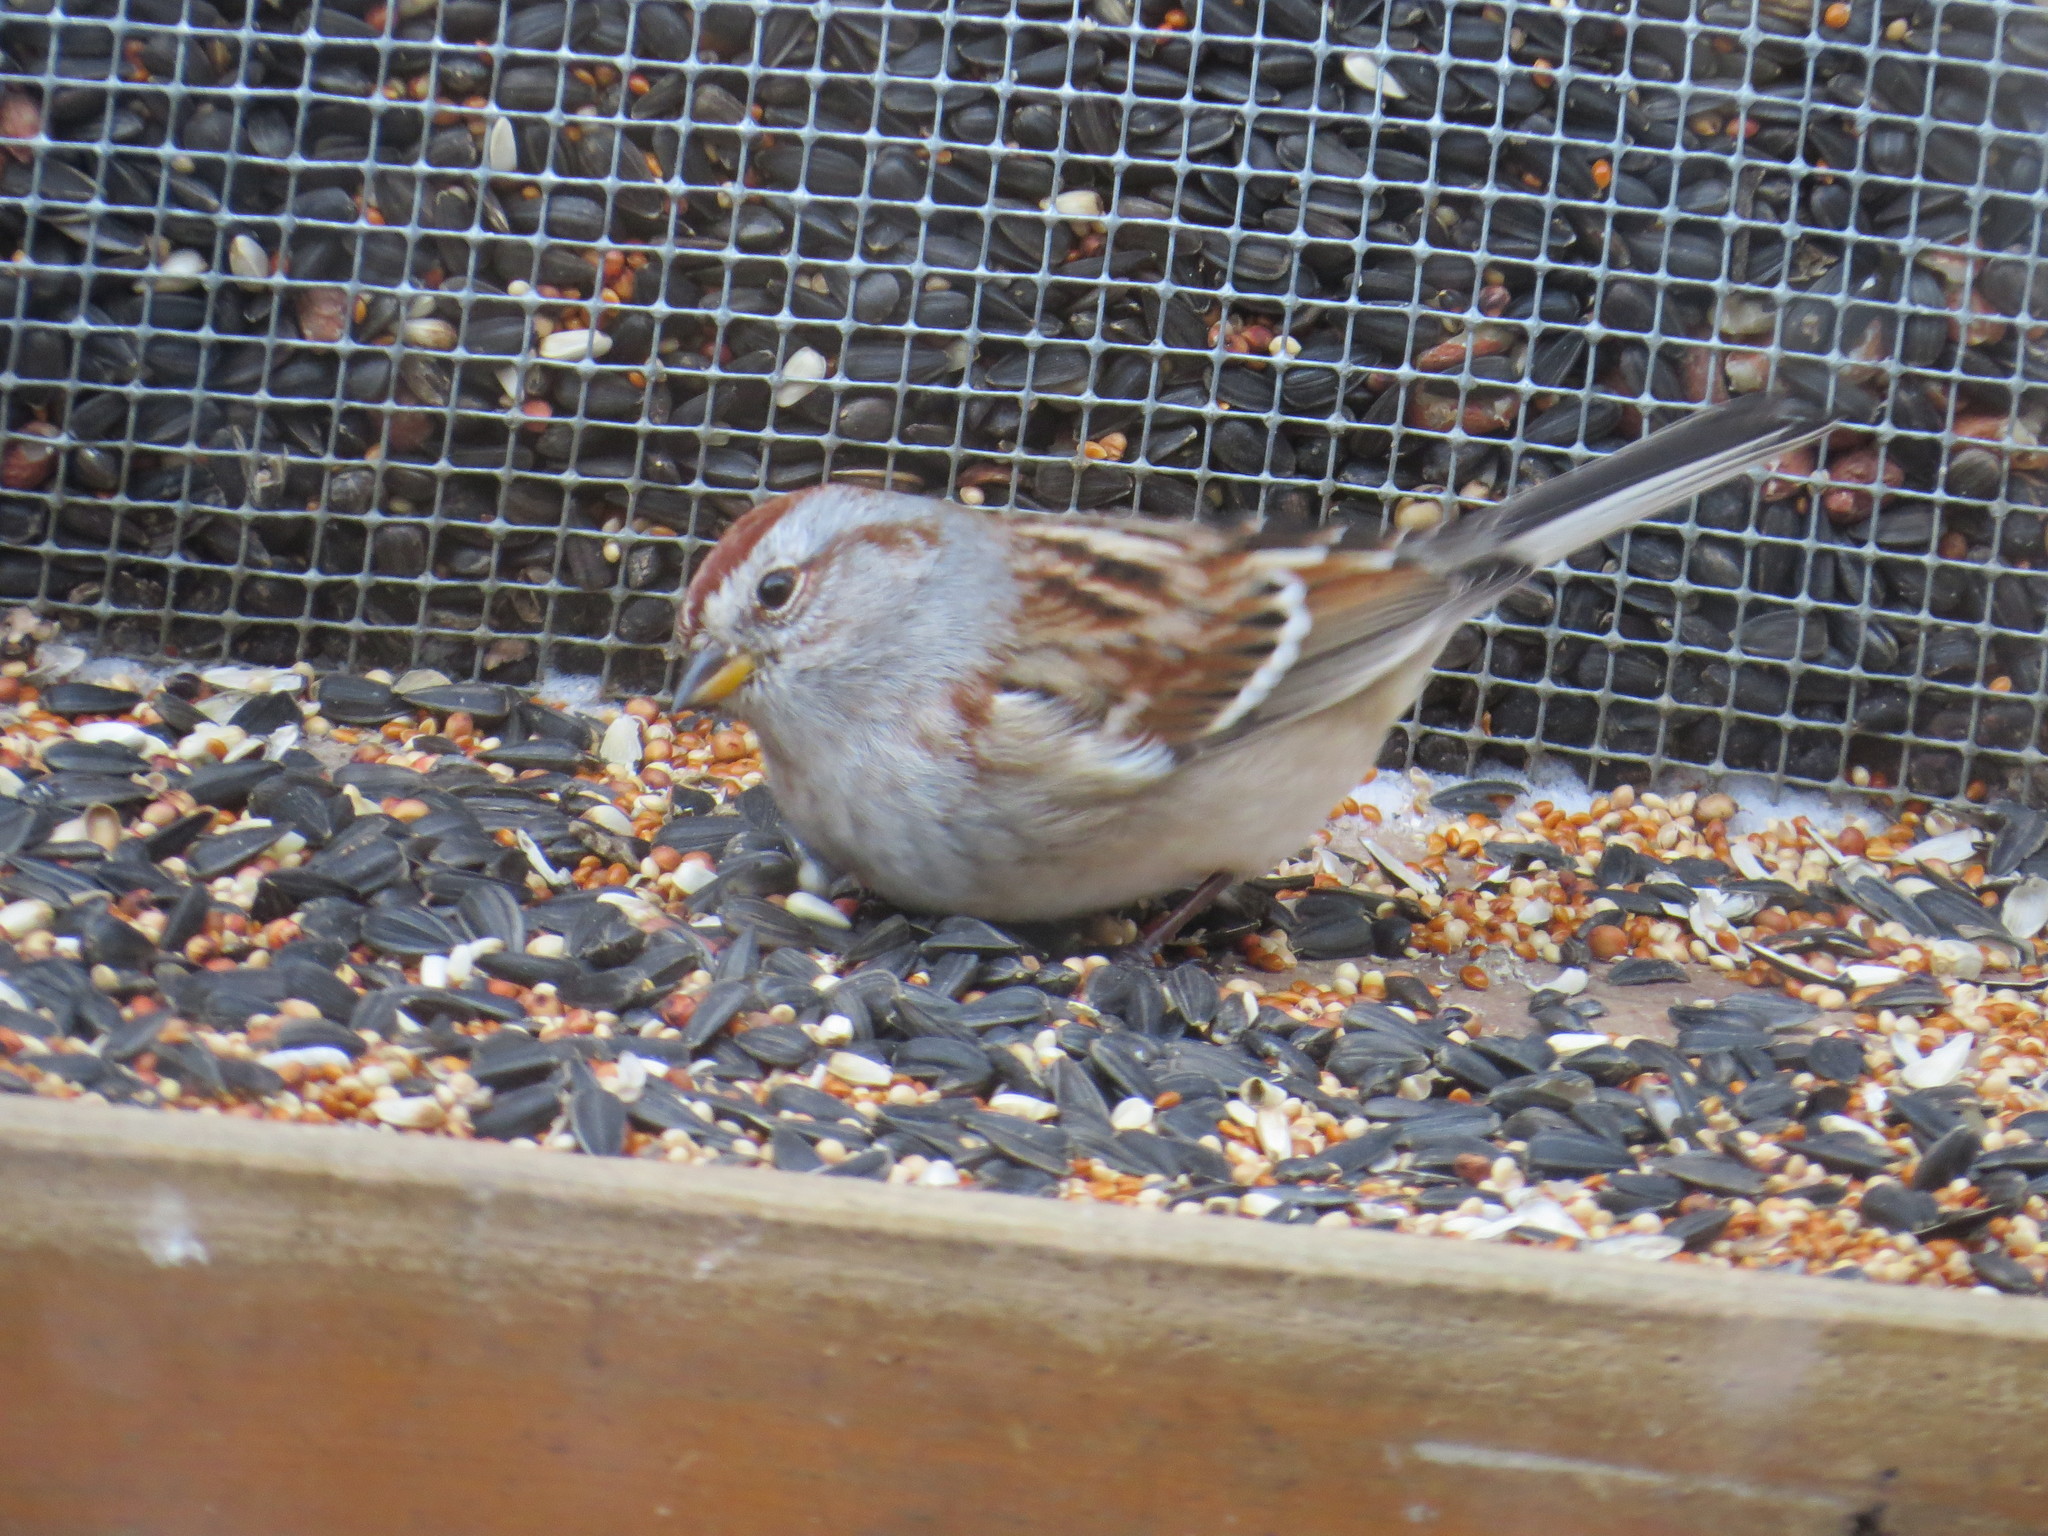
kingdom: Animalia
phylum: Chordata
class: Aves
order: Passeriformes
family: Passerellidae
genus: Spizelloides
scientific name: Spizelloides arborea
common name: American tree sparrow
